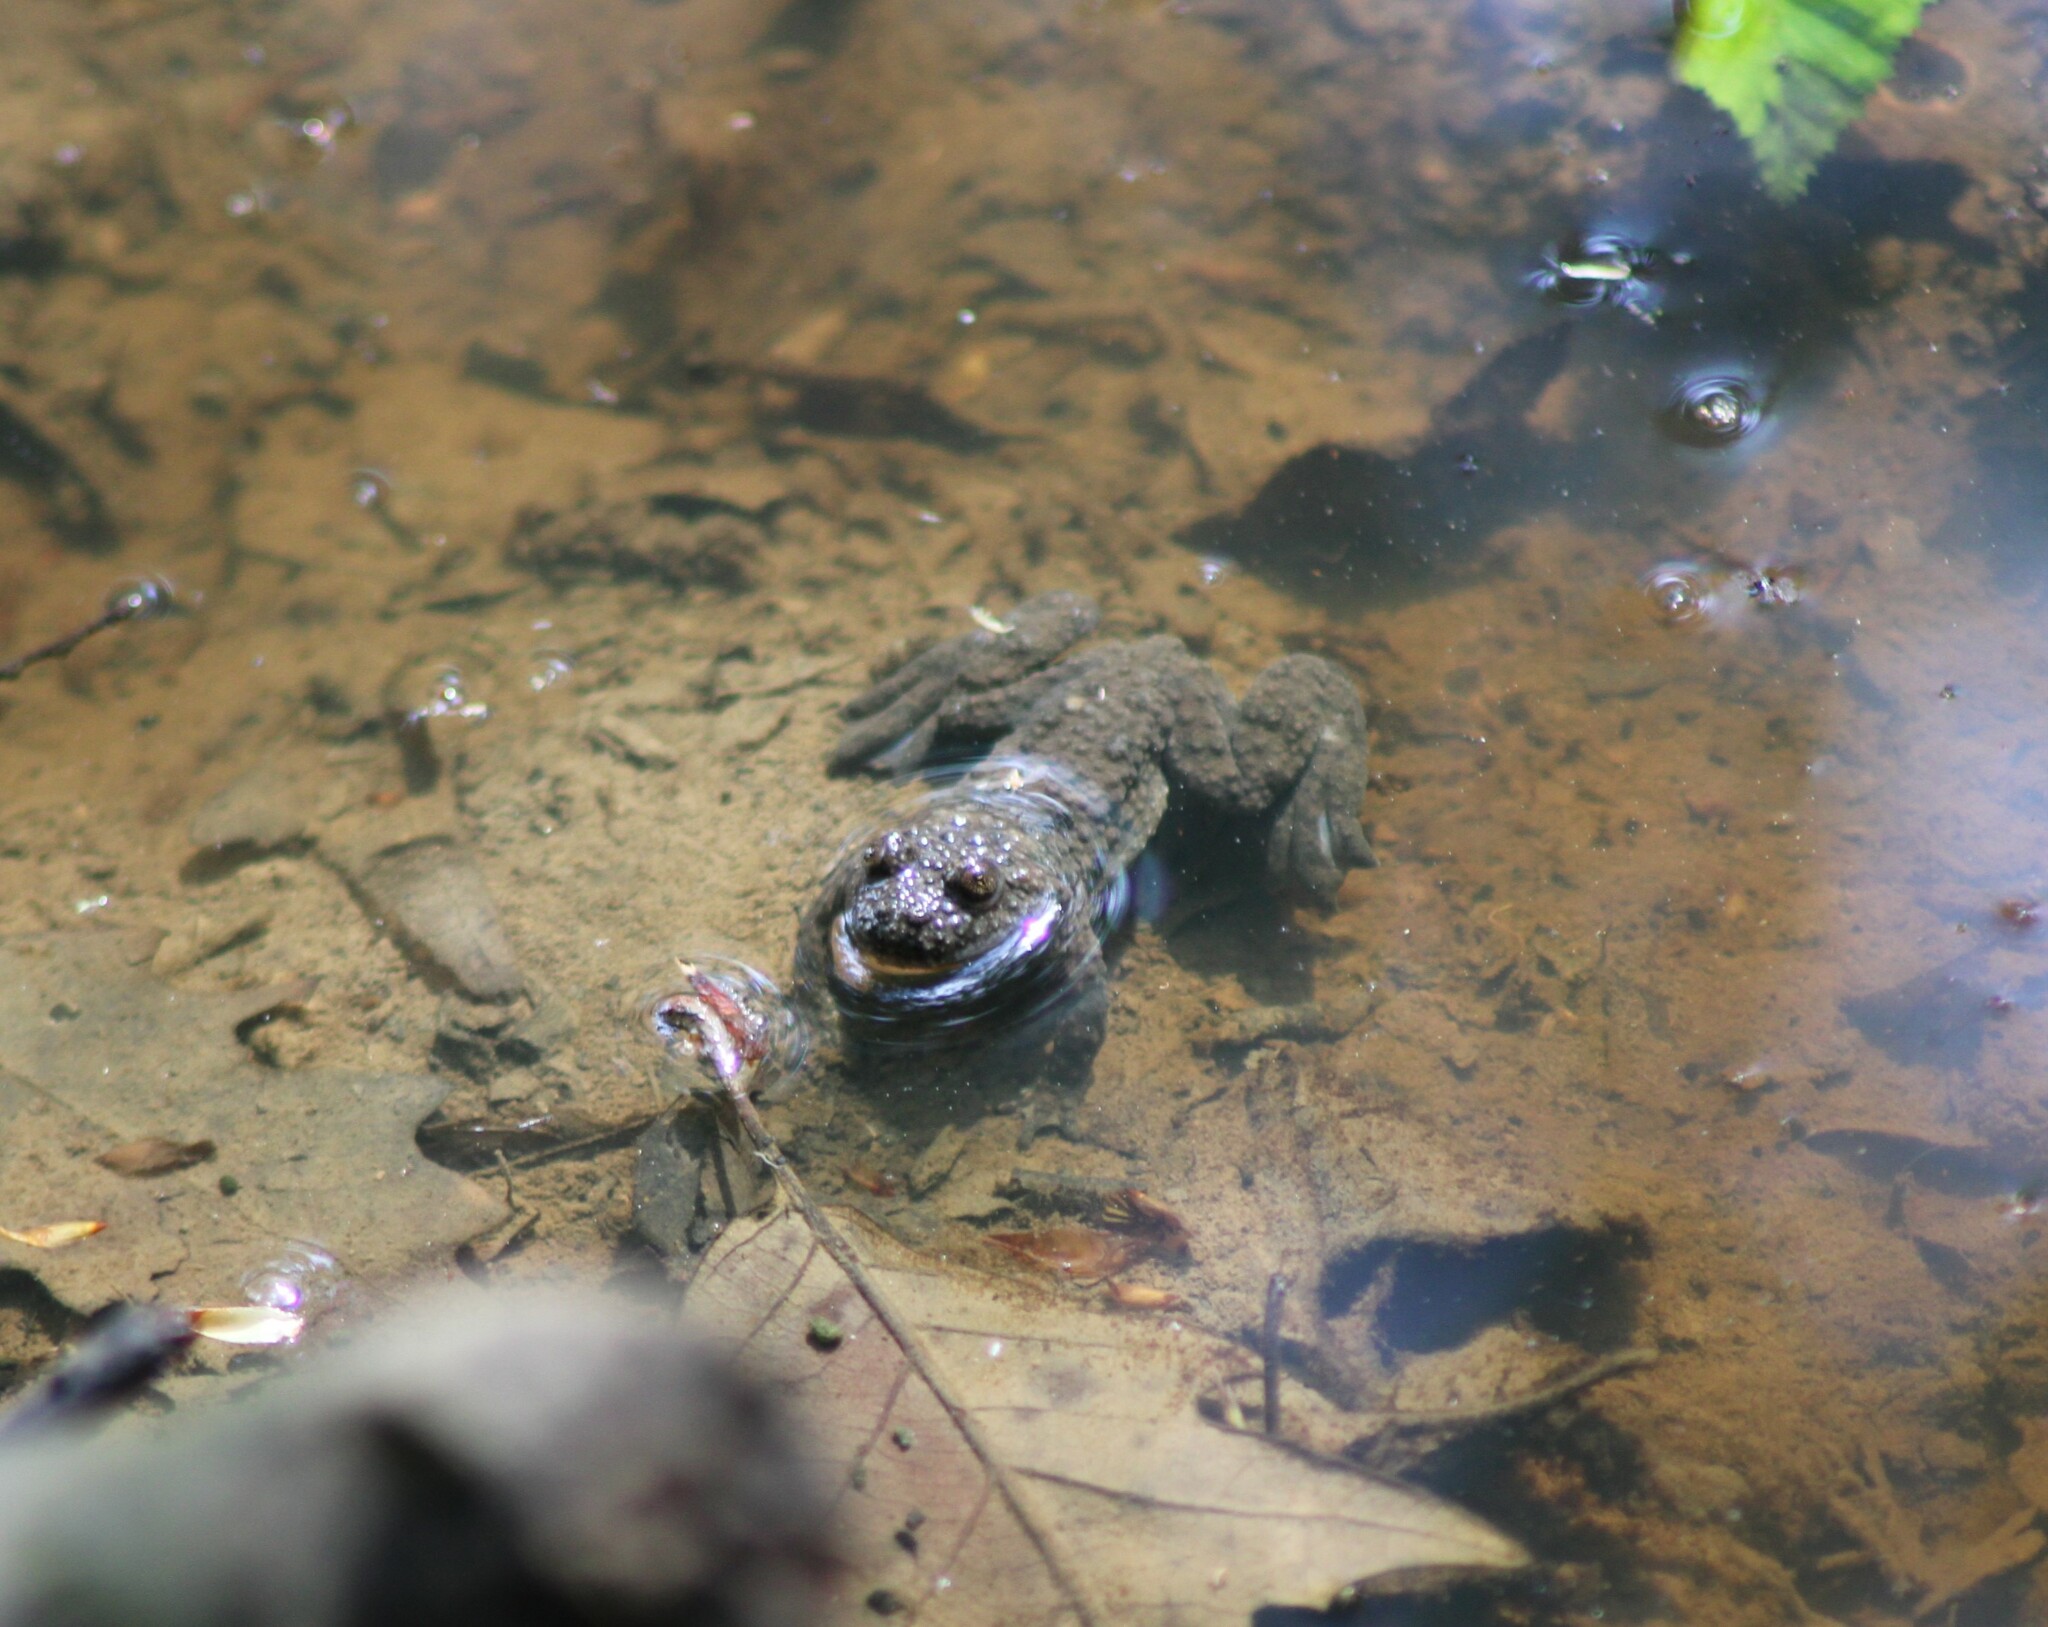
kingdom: Animalia
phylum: Chordata
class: Amphibia
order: Anura
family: Bombinatoridae
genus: Bombina
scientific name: Bombina variegata
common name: Yellow-bellied toad
